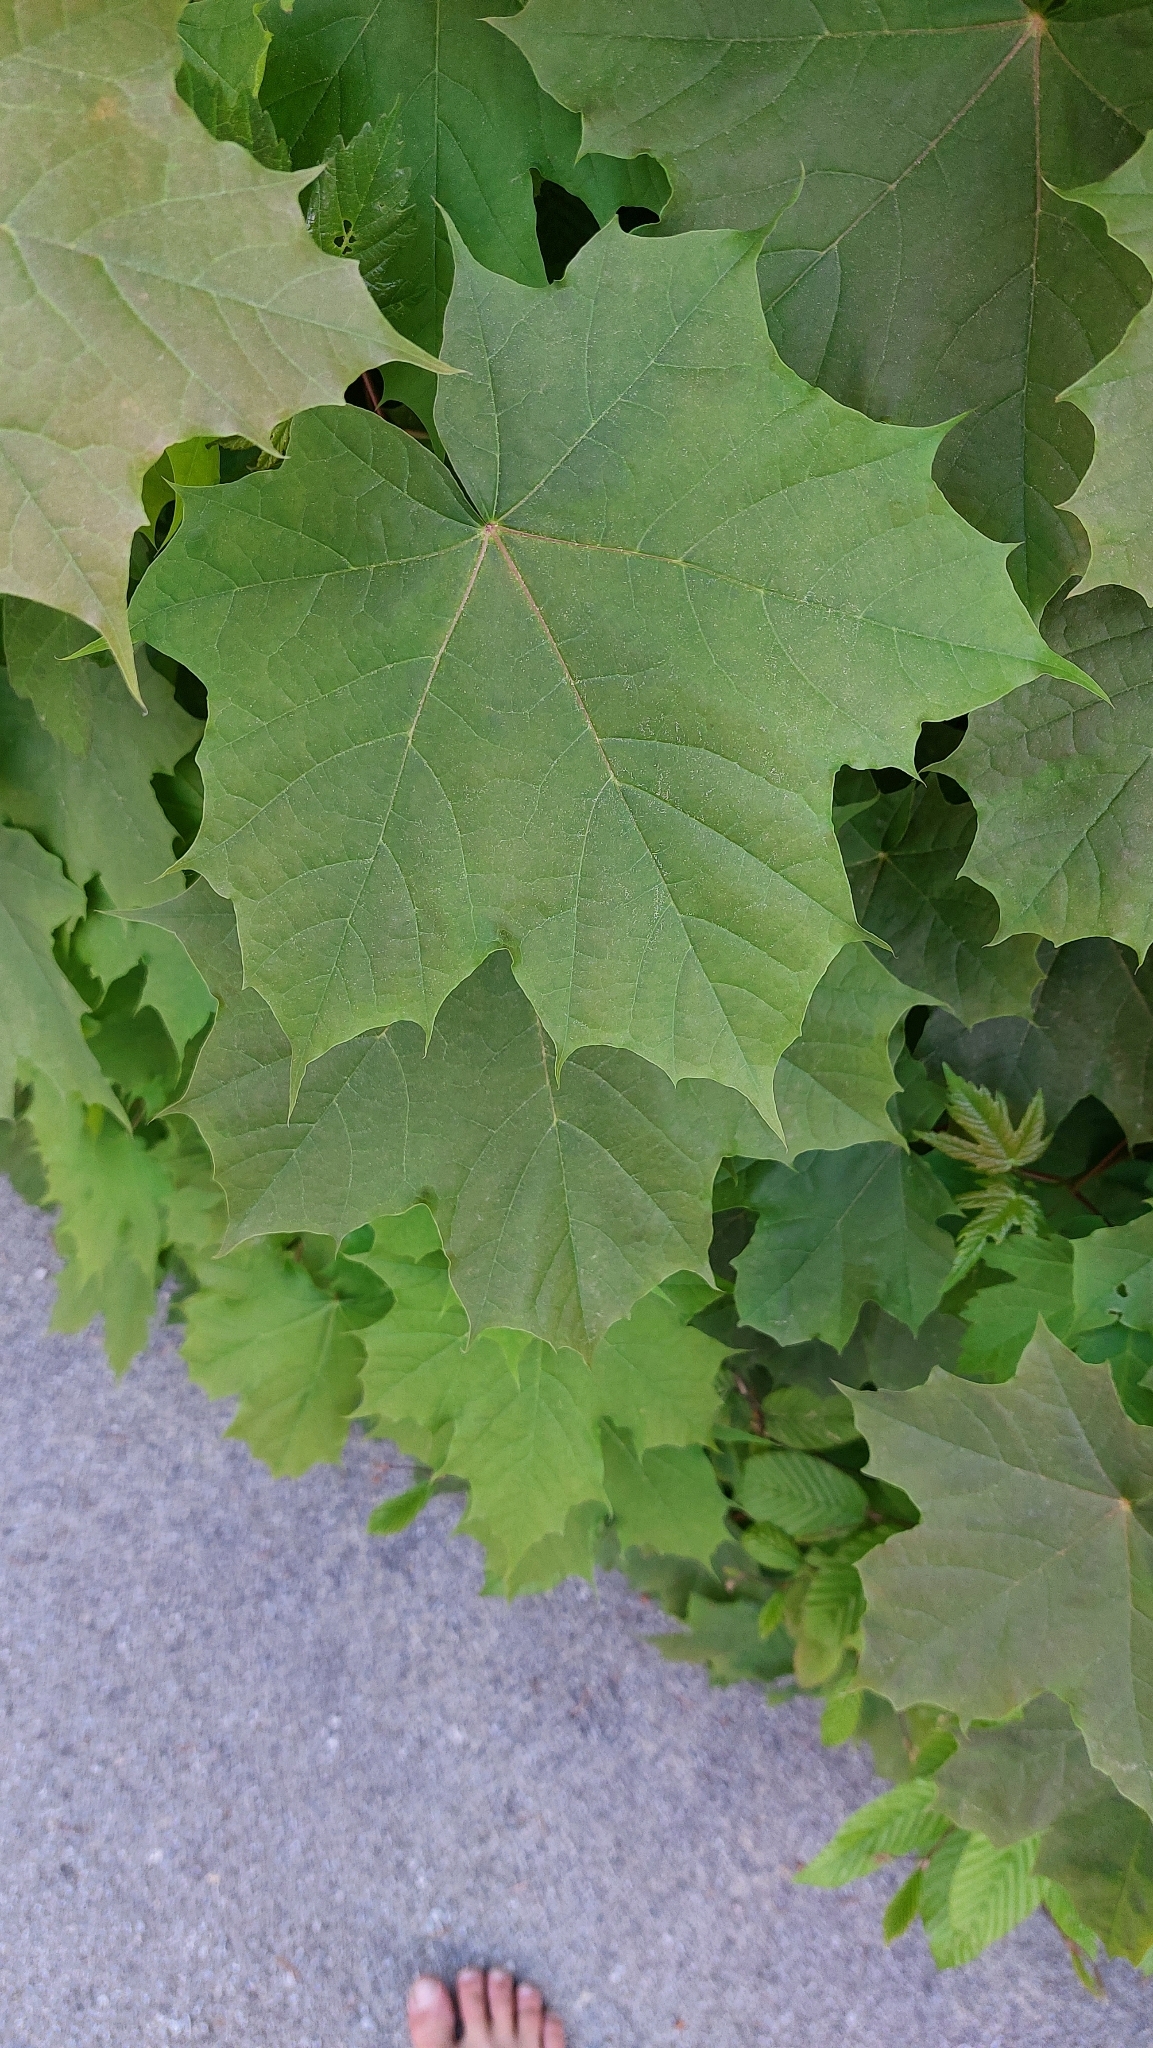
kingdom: Plantae
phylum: Tracheophyta
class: Magnoliopsida
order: Sapindales
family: Sapindaceae
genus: Acer
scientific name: Acer platanoides
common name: Norway maple
